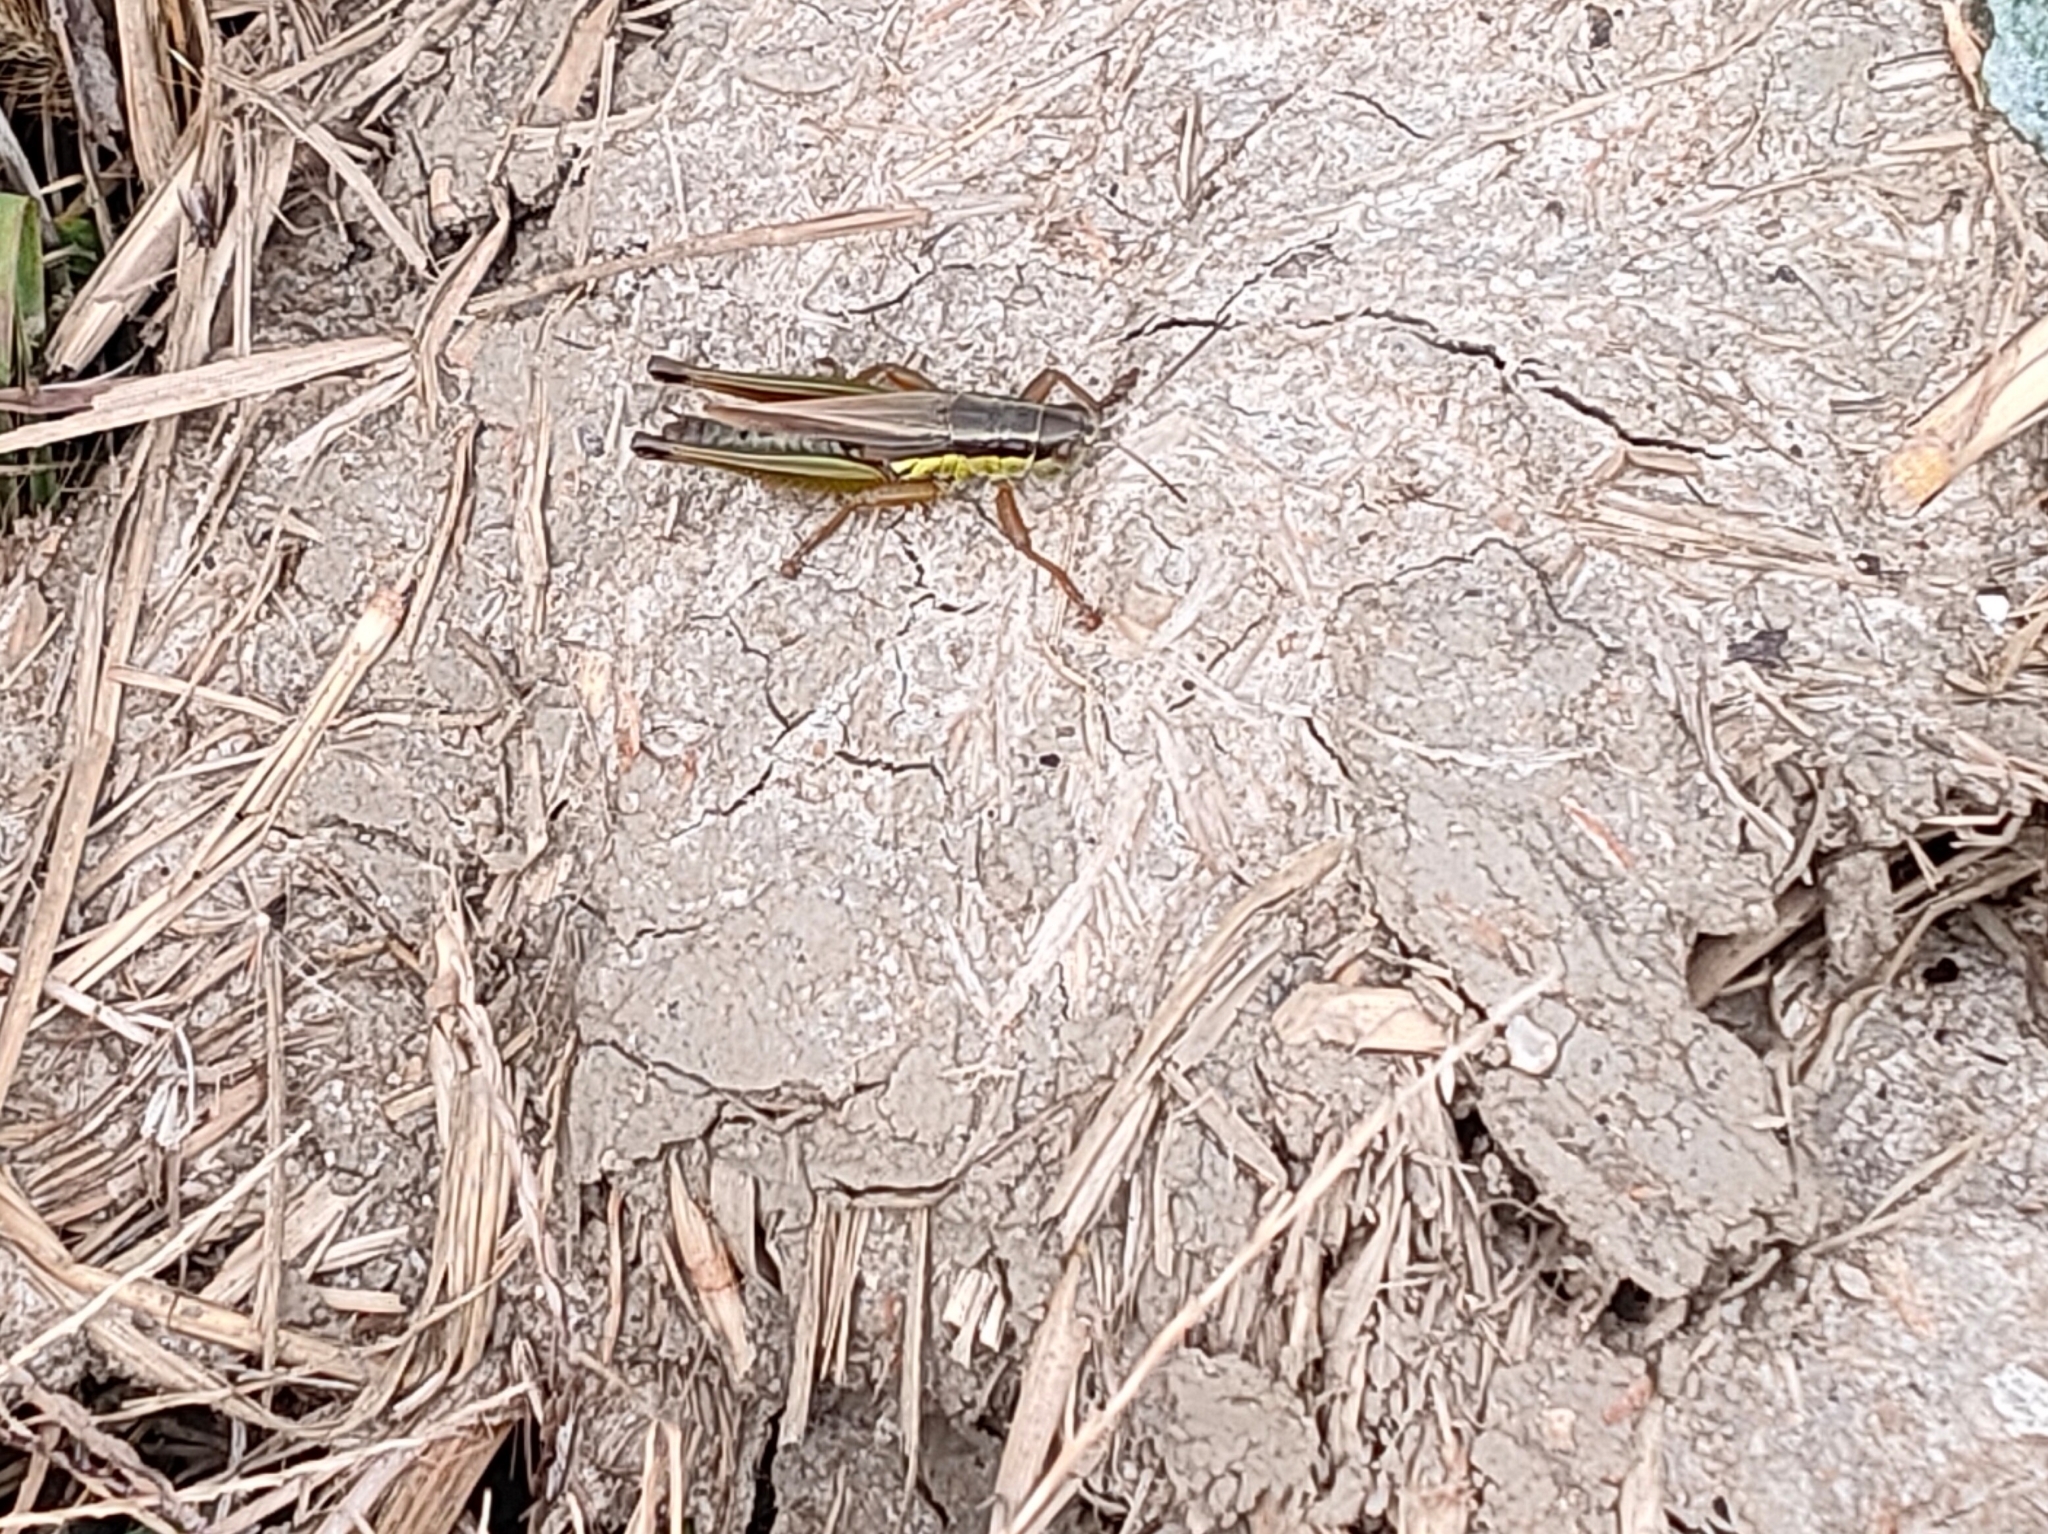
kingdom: Animalia
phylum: Arthropoda
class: Insecta
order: Orthoptera
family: Acrididae
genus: Oxya
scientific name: Oxya yezoensis
